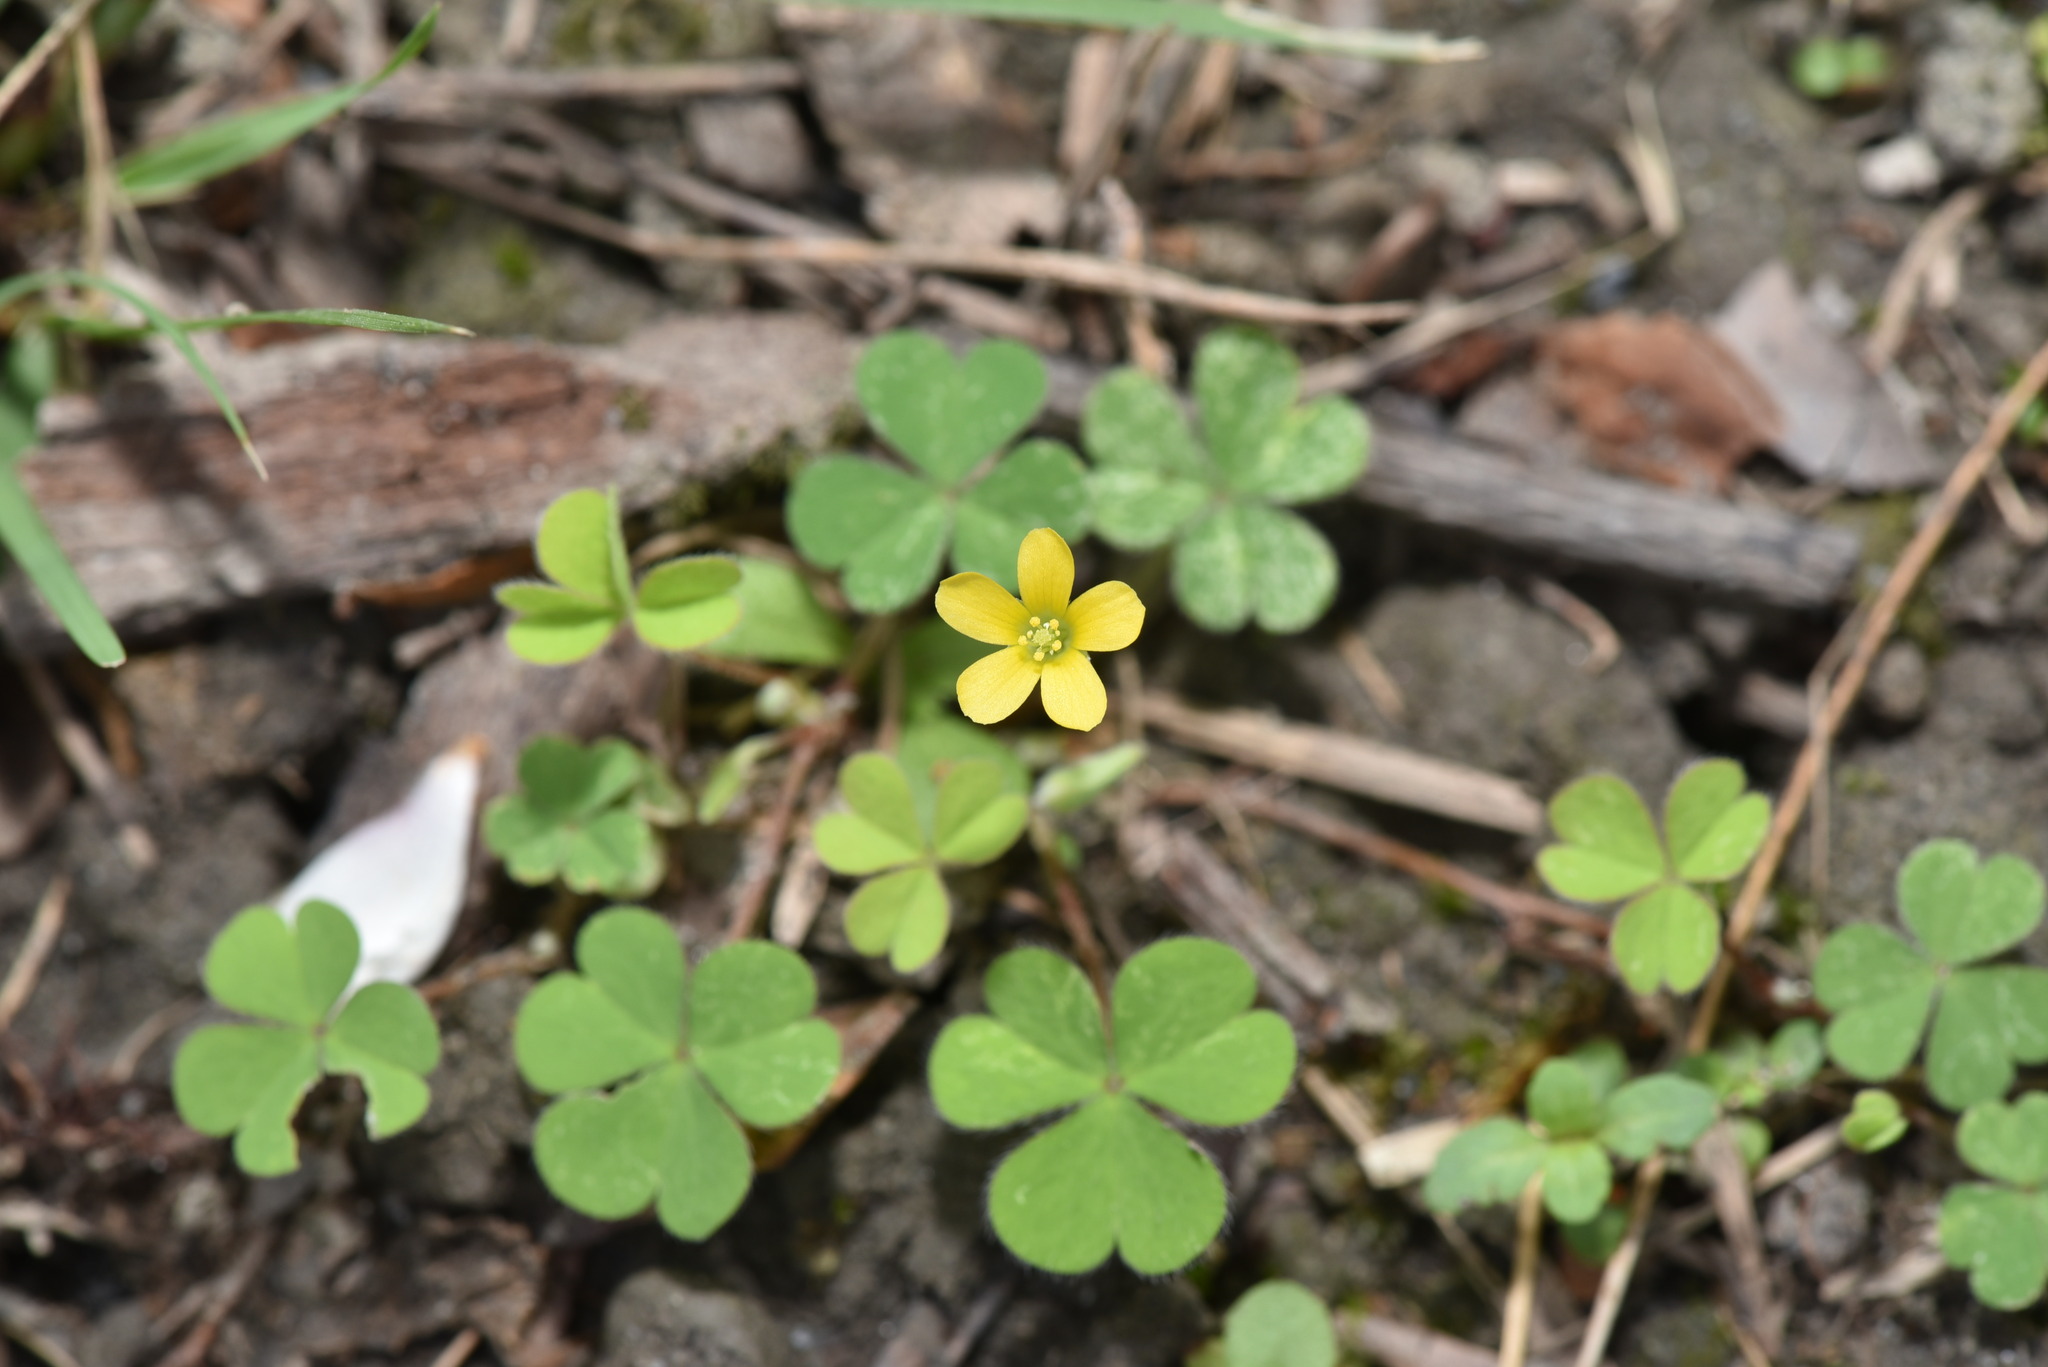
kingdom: Plantae
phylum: Tracheophyta
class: Magnoliopsida
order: Oxalidales
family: Oxalidaceae
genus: Oxalis
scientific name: Oxalis corniculata
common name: Procumbent yellow-sorrel
